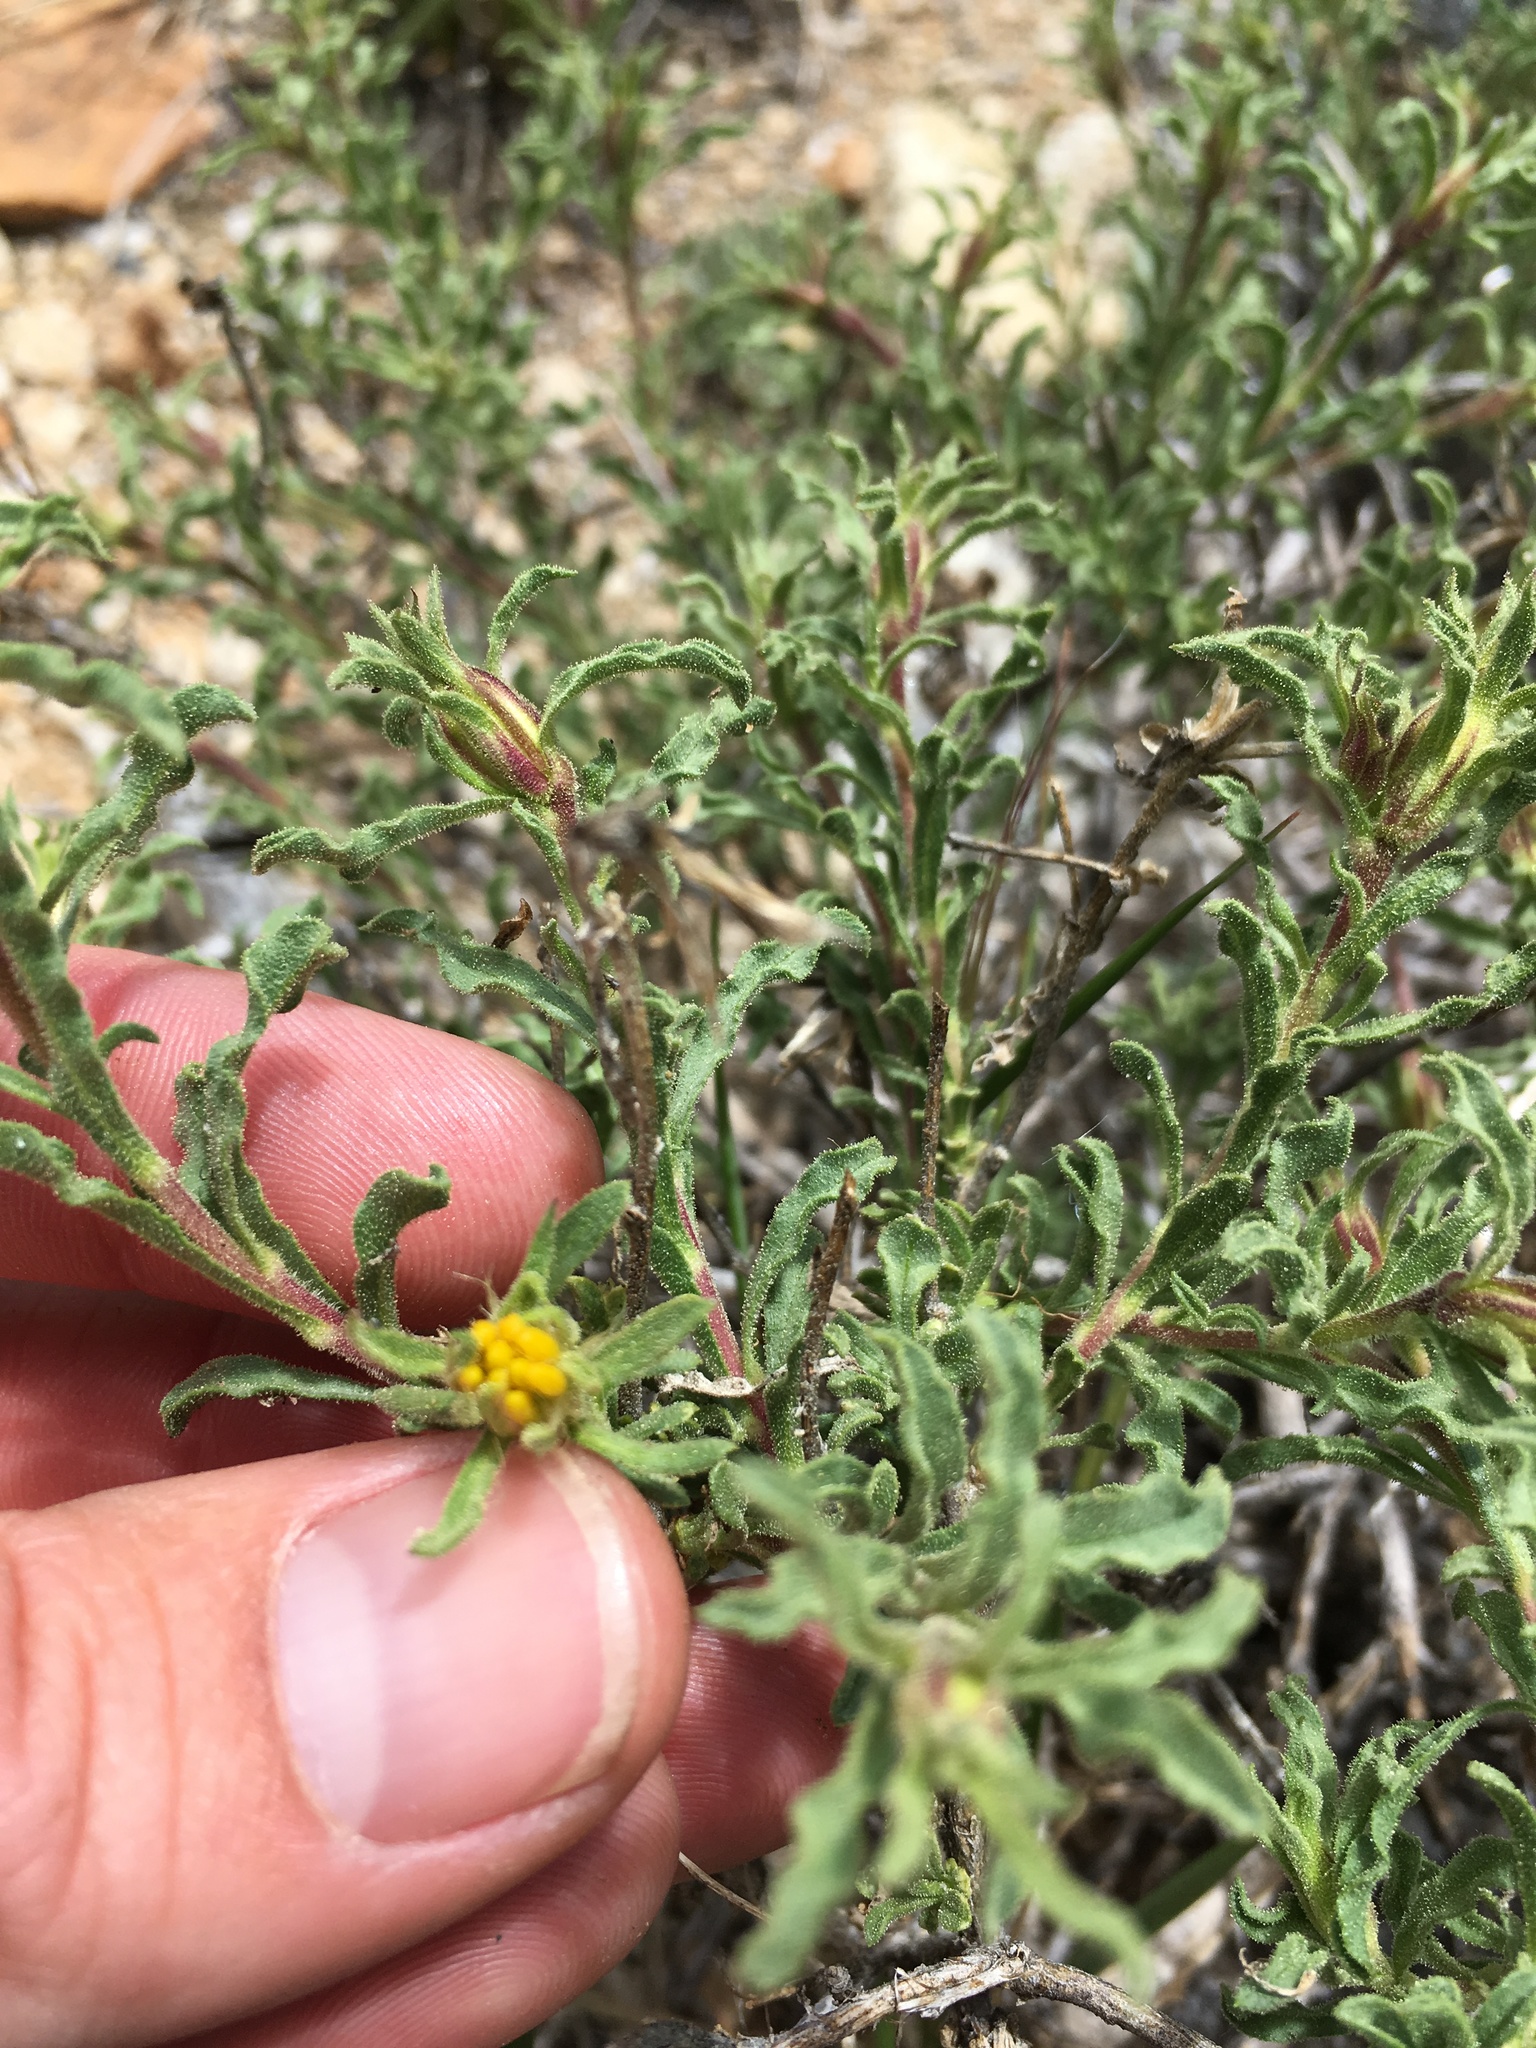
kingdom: Plantae
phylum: Tracheophyta
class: Magnoliopsida
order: Asterales
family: Asteraceae
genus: Ericameria
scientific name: Ericameria suffruticosa
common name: Goldenweed
